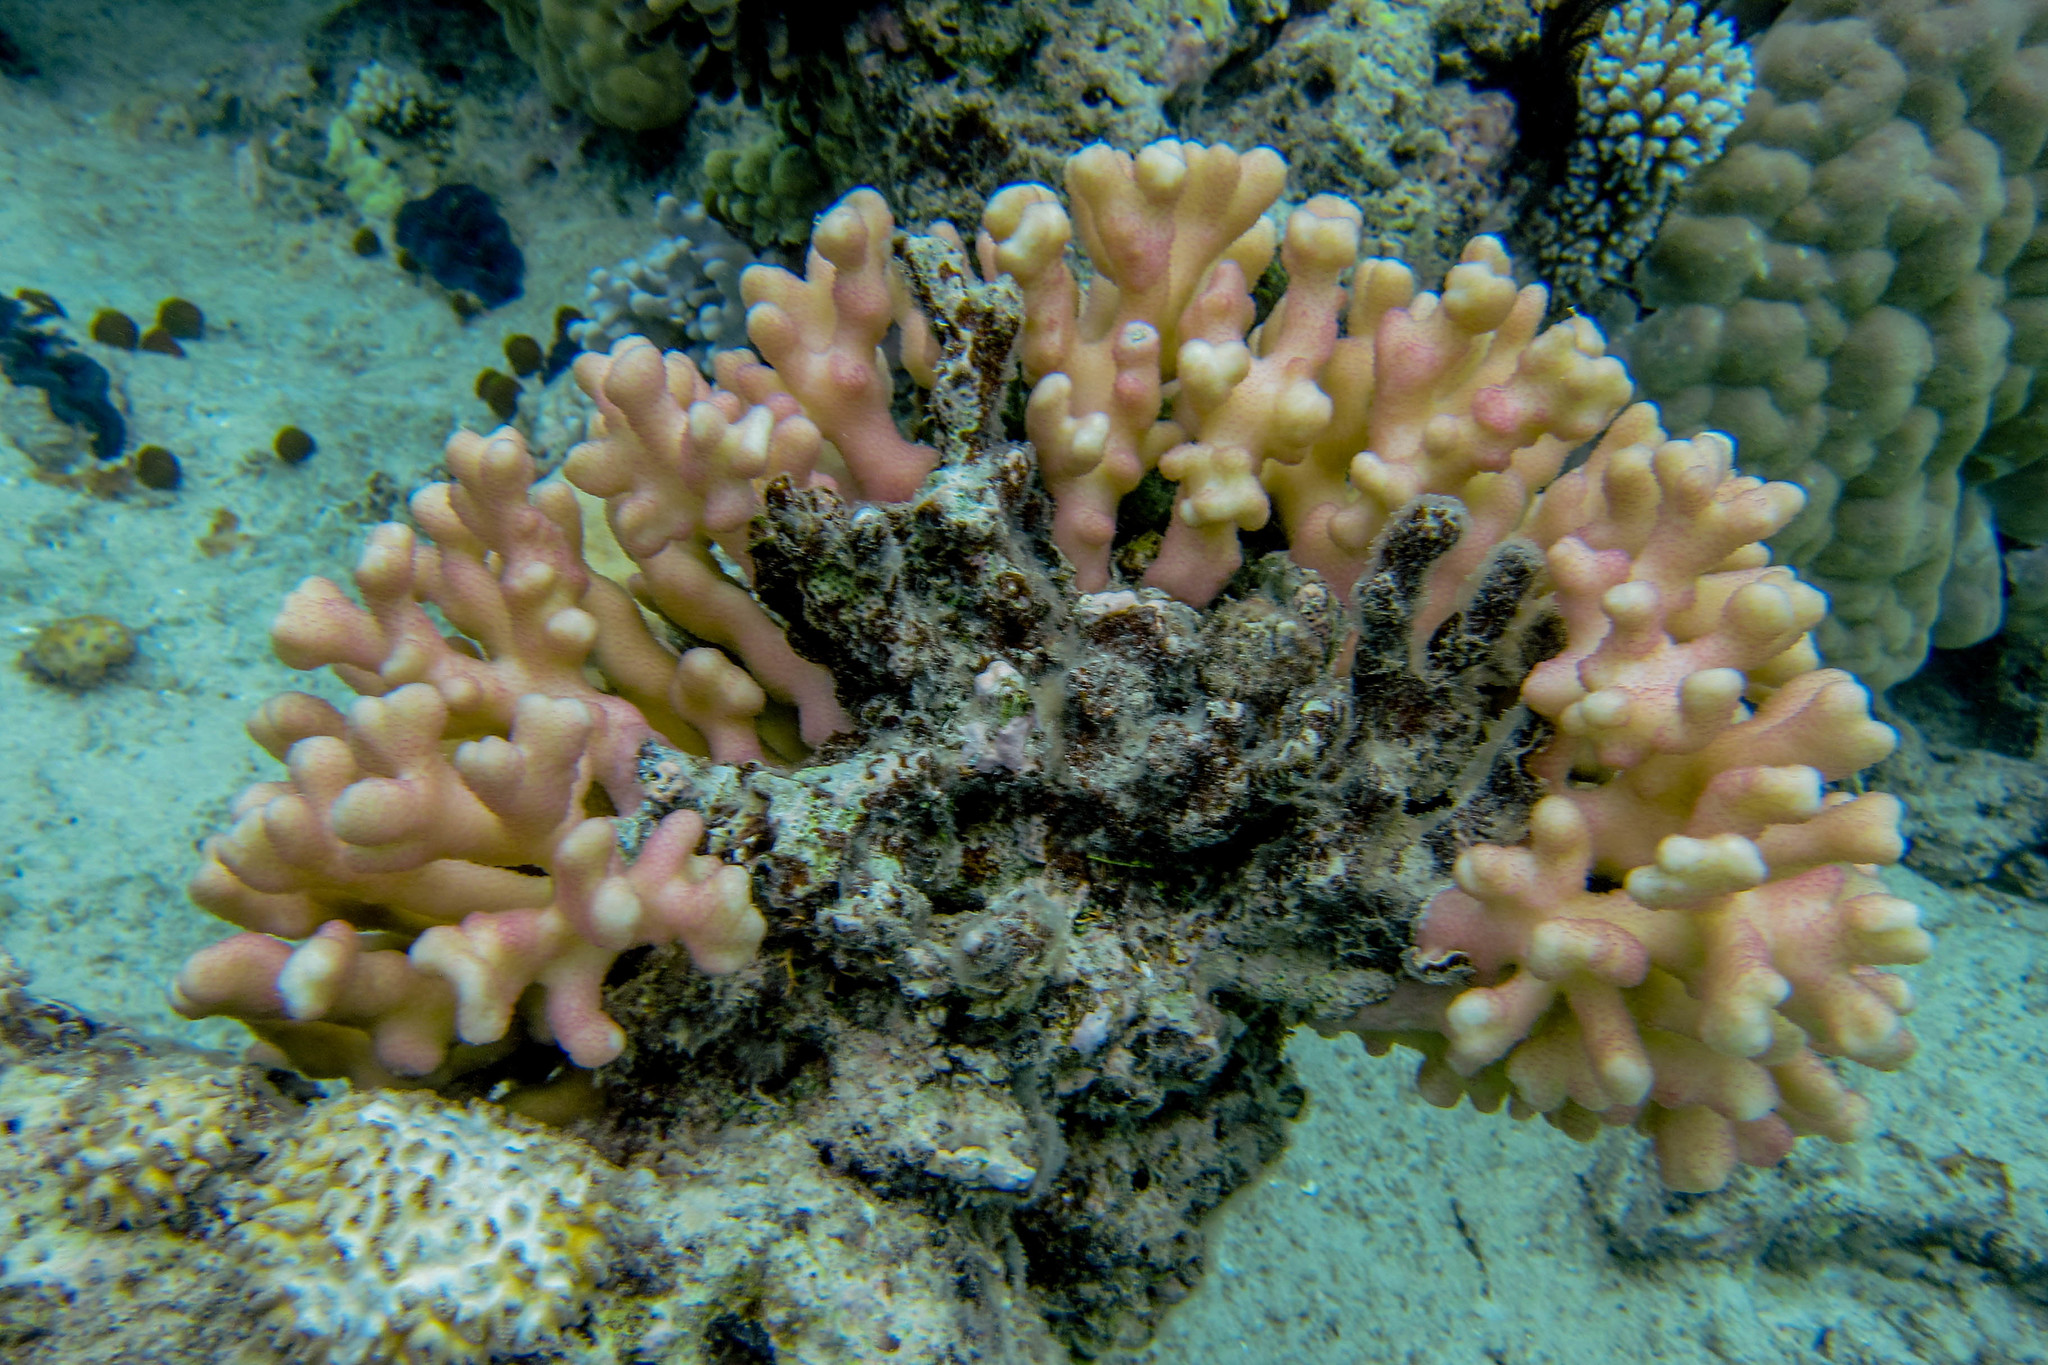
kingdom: Animalia
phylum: Cnidaria
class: Anthozoa
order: Scleractinia
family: Pocilloporidae
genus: Stylophora
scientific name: Stylophora pistillata
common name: Hood coral
